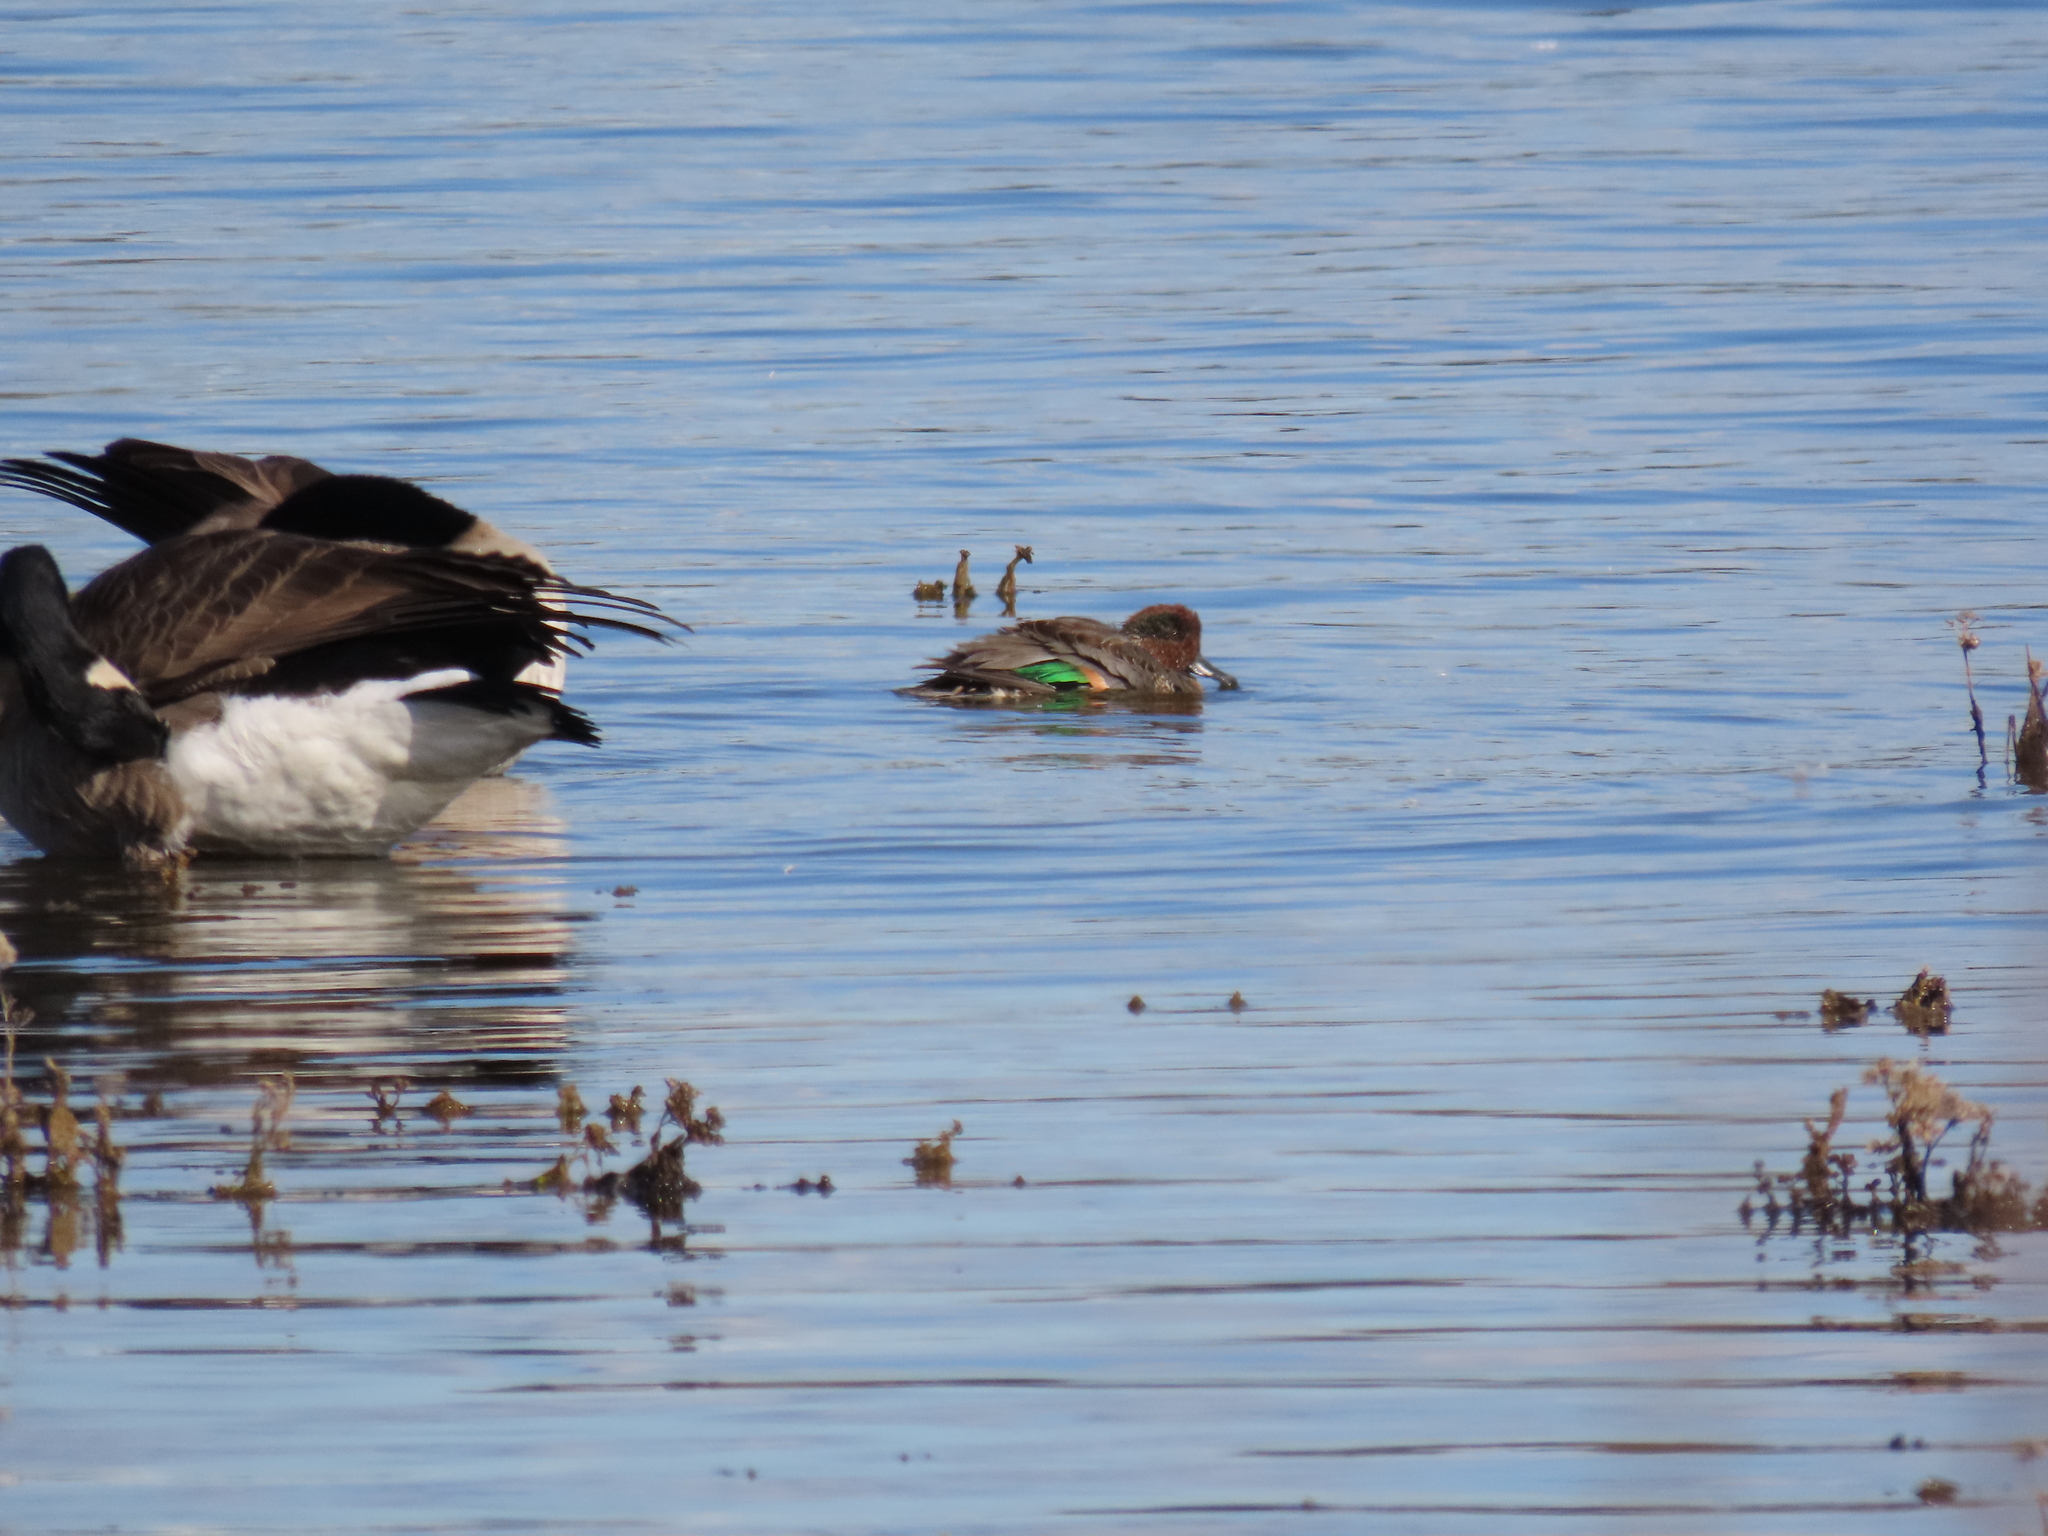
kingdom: Animalia
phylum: Chordata
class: Aves
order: Anseriformes
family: Anatidae
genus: Anas
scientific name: Anas crecca
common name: Eurasian teal
